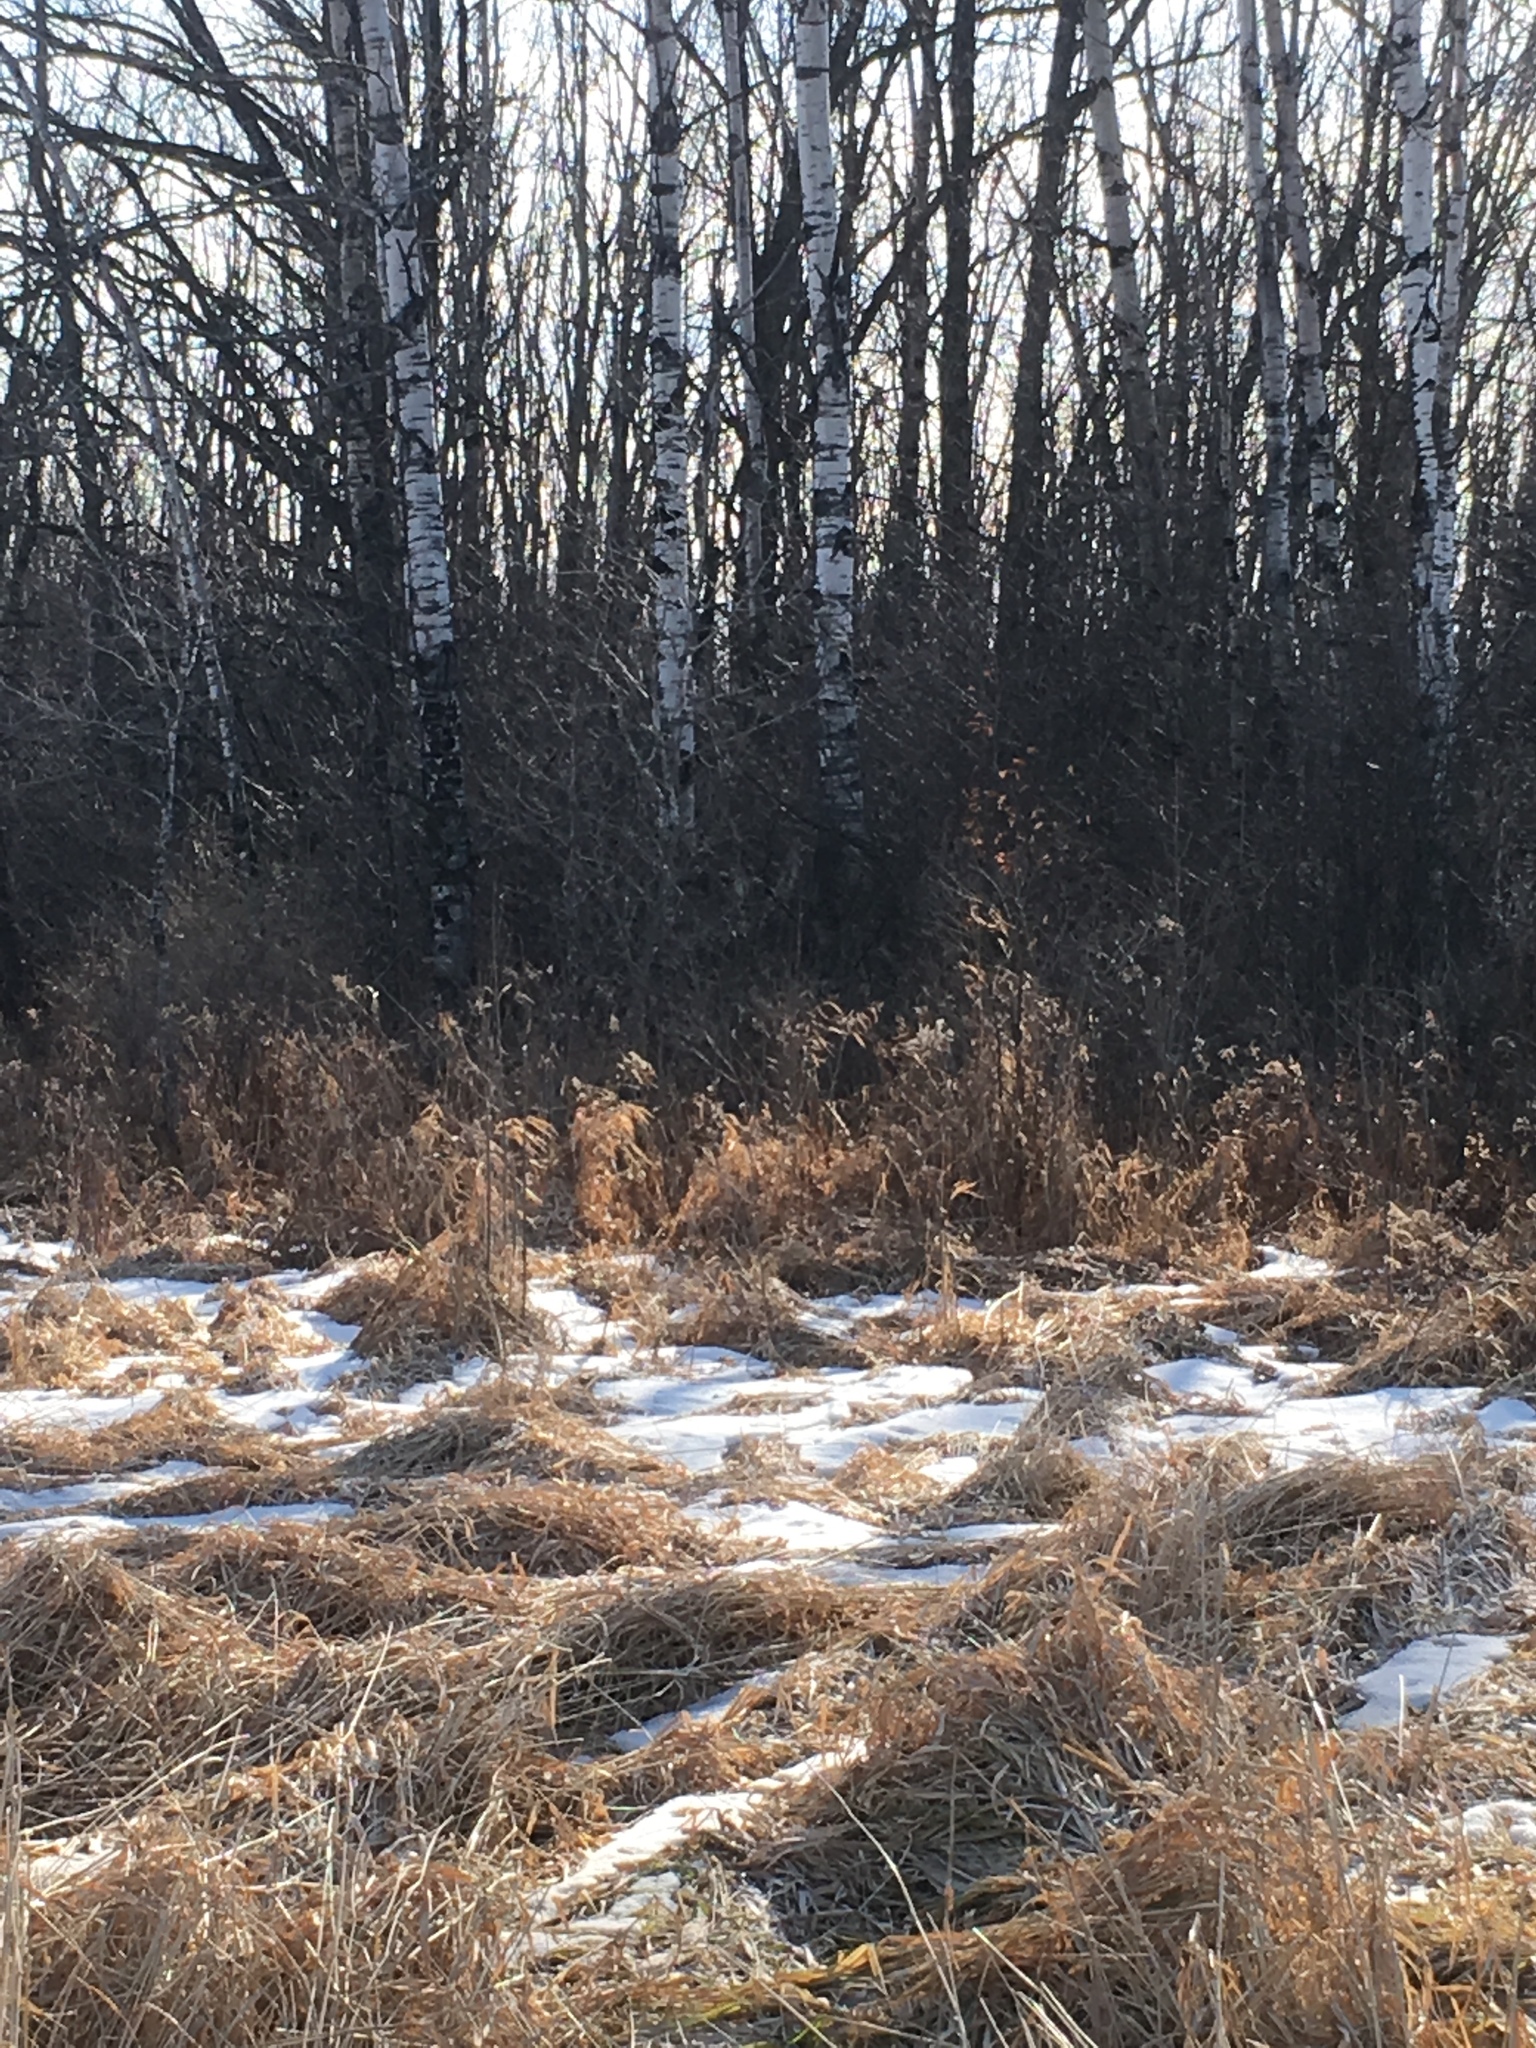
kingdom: Plantae
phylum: Tracheophyta
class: Magnoliopsida
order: Malpighiales
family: Salicaceae
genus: Populus
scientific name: Populus tremuloides
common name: Quaking aspen
